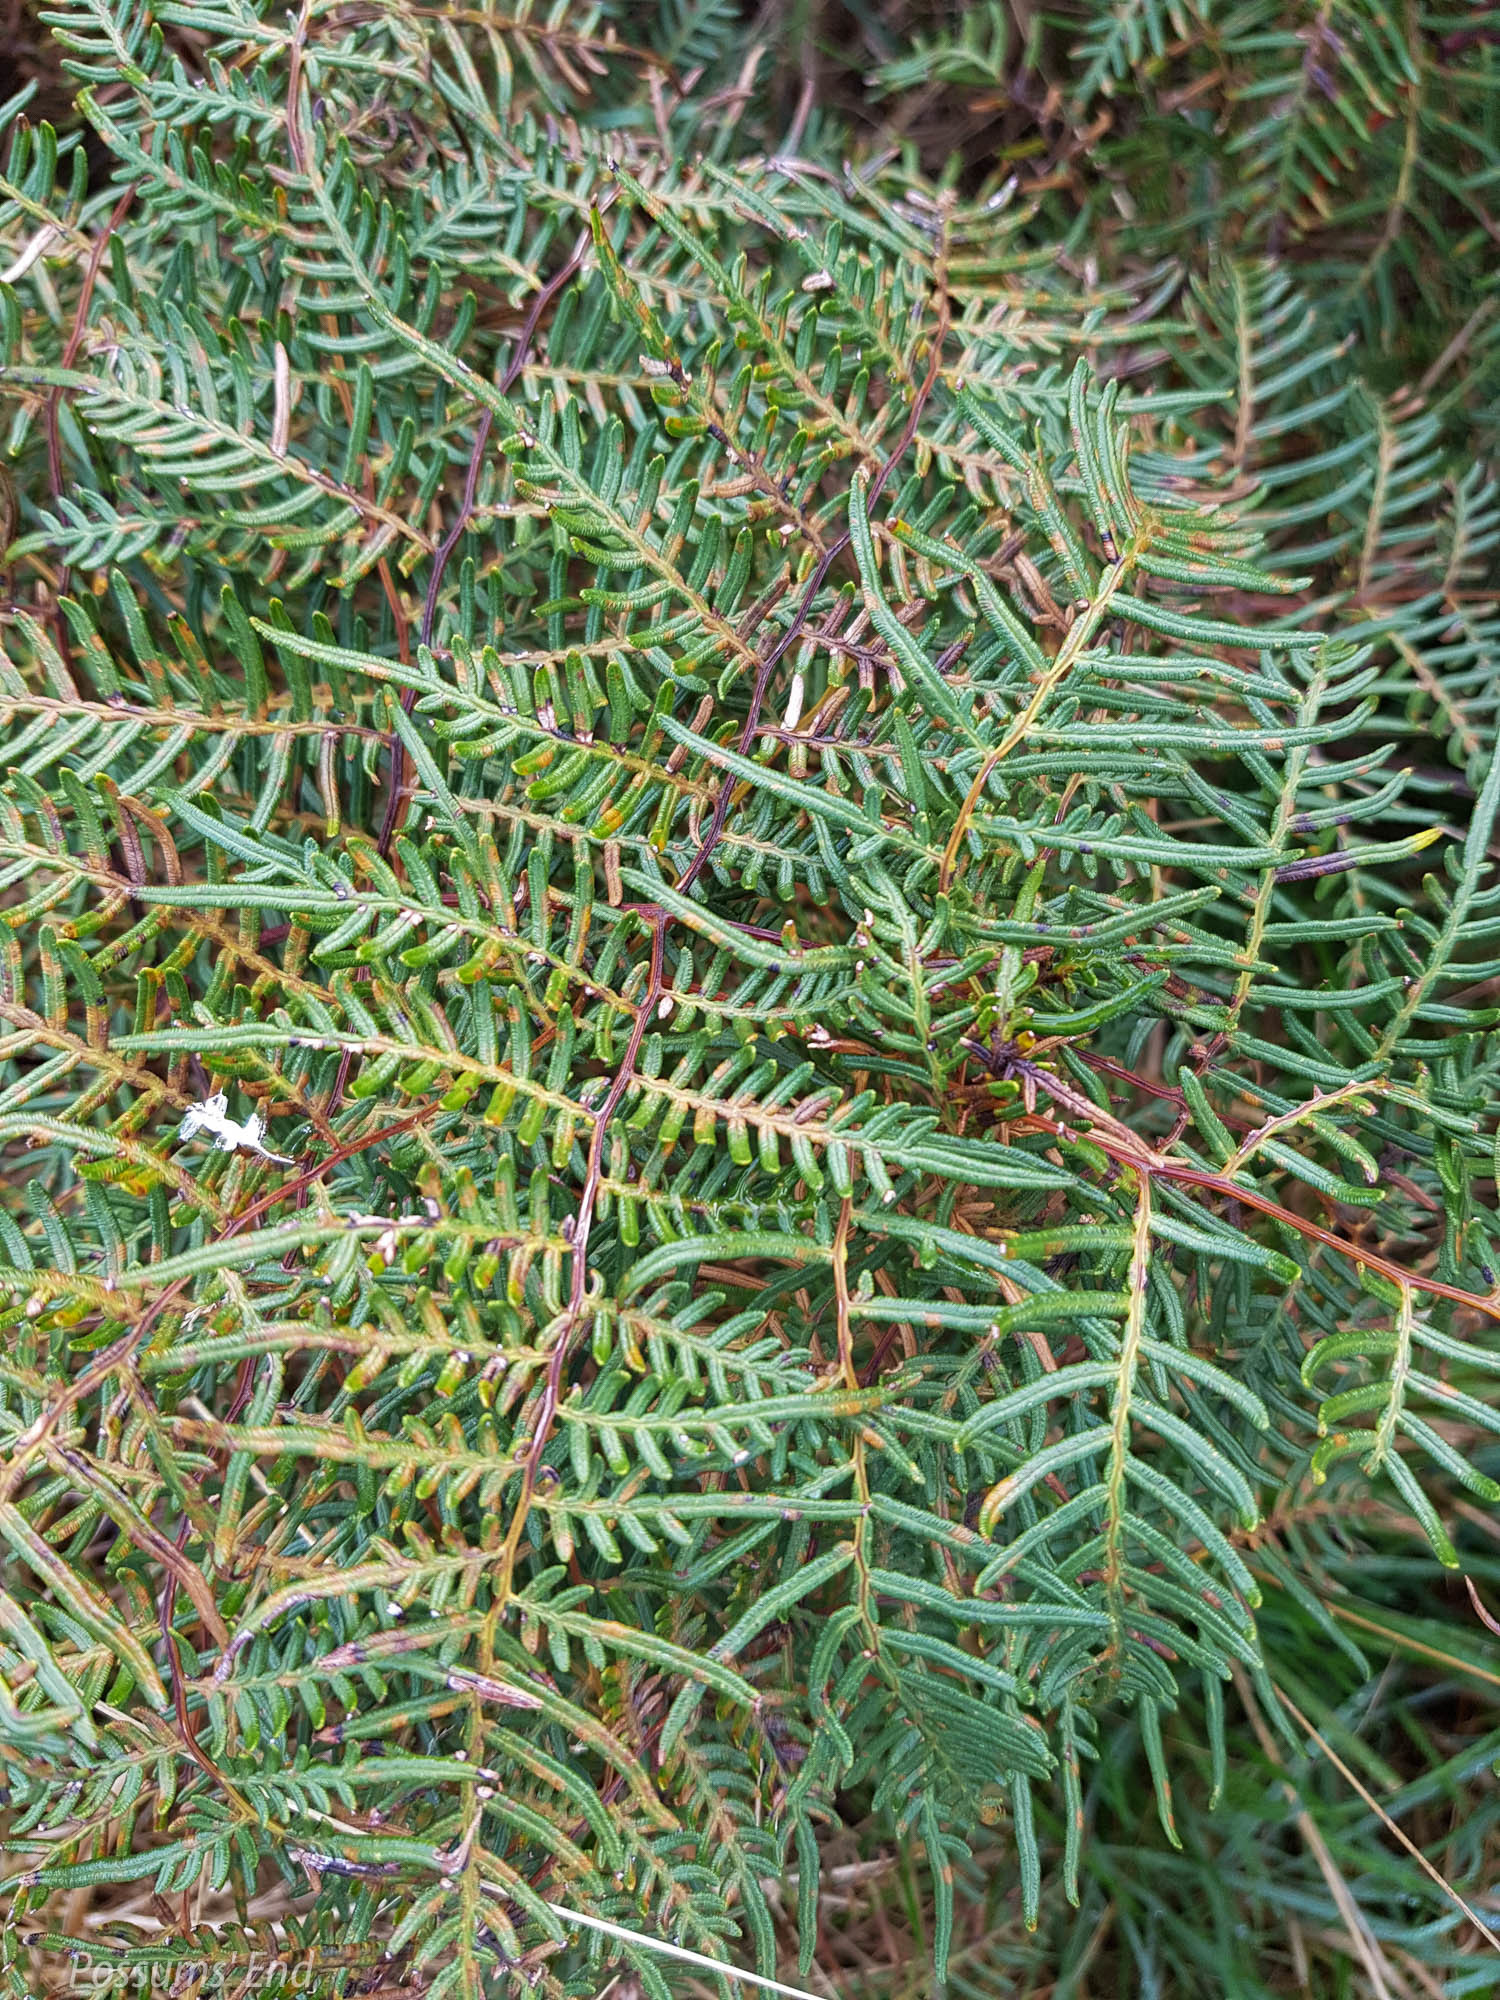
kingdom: Plantae
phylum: Tracheophyta
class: Polypodiopsida
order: Polypodiales
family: Dennstaedtiaceae
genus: Pteridium
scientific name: Pteridium esculentum
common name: Bracken fern
